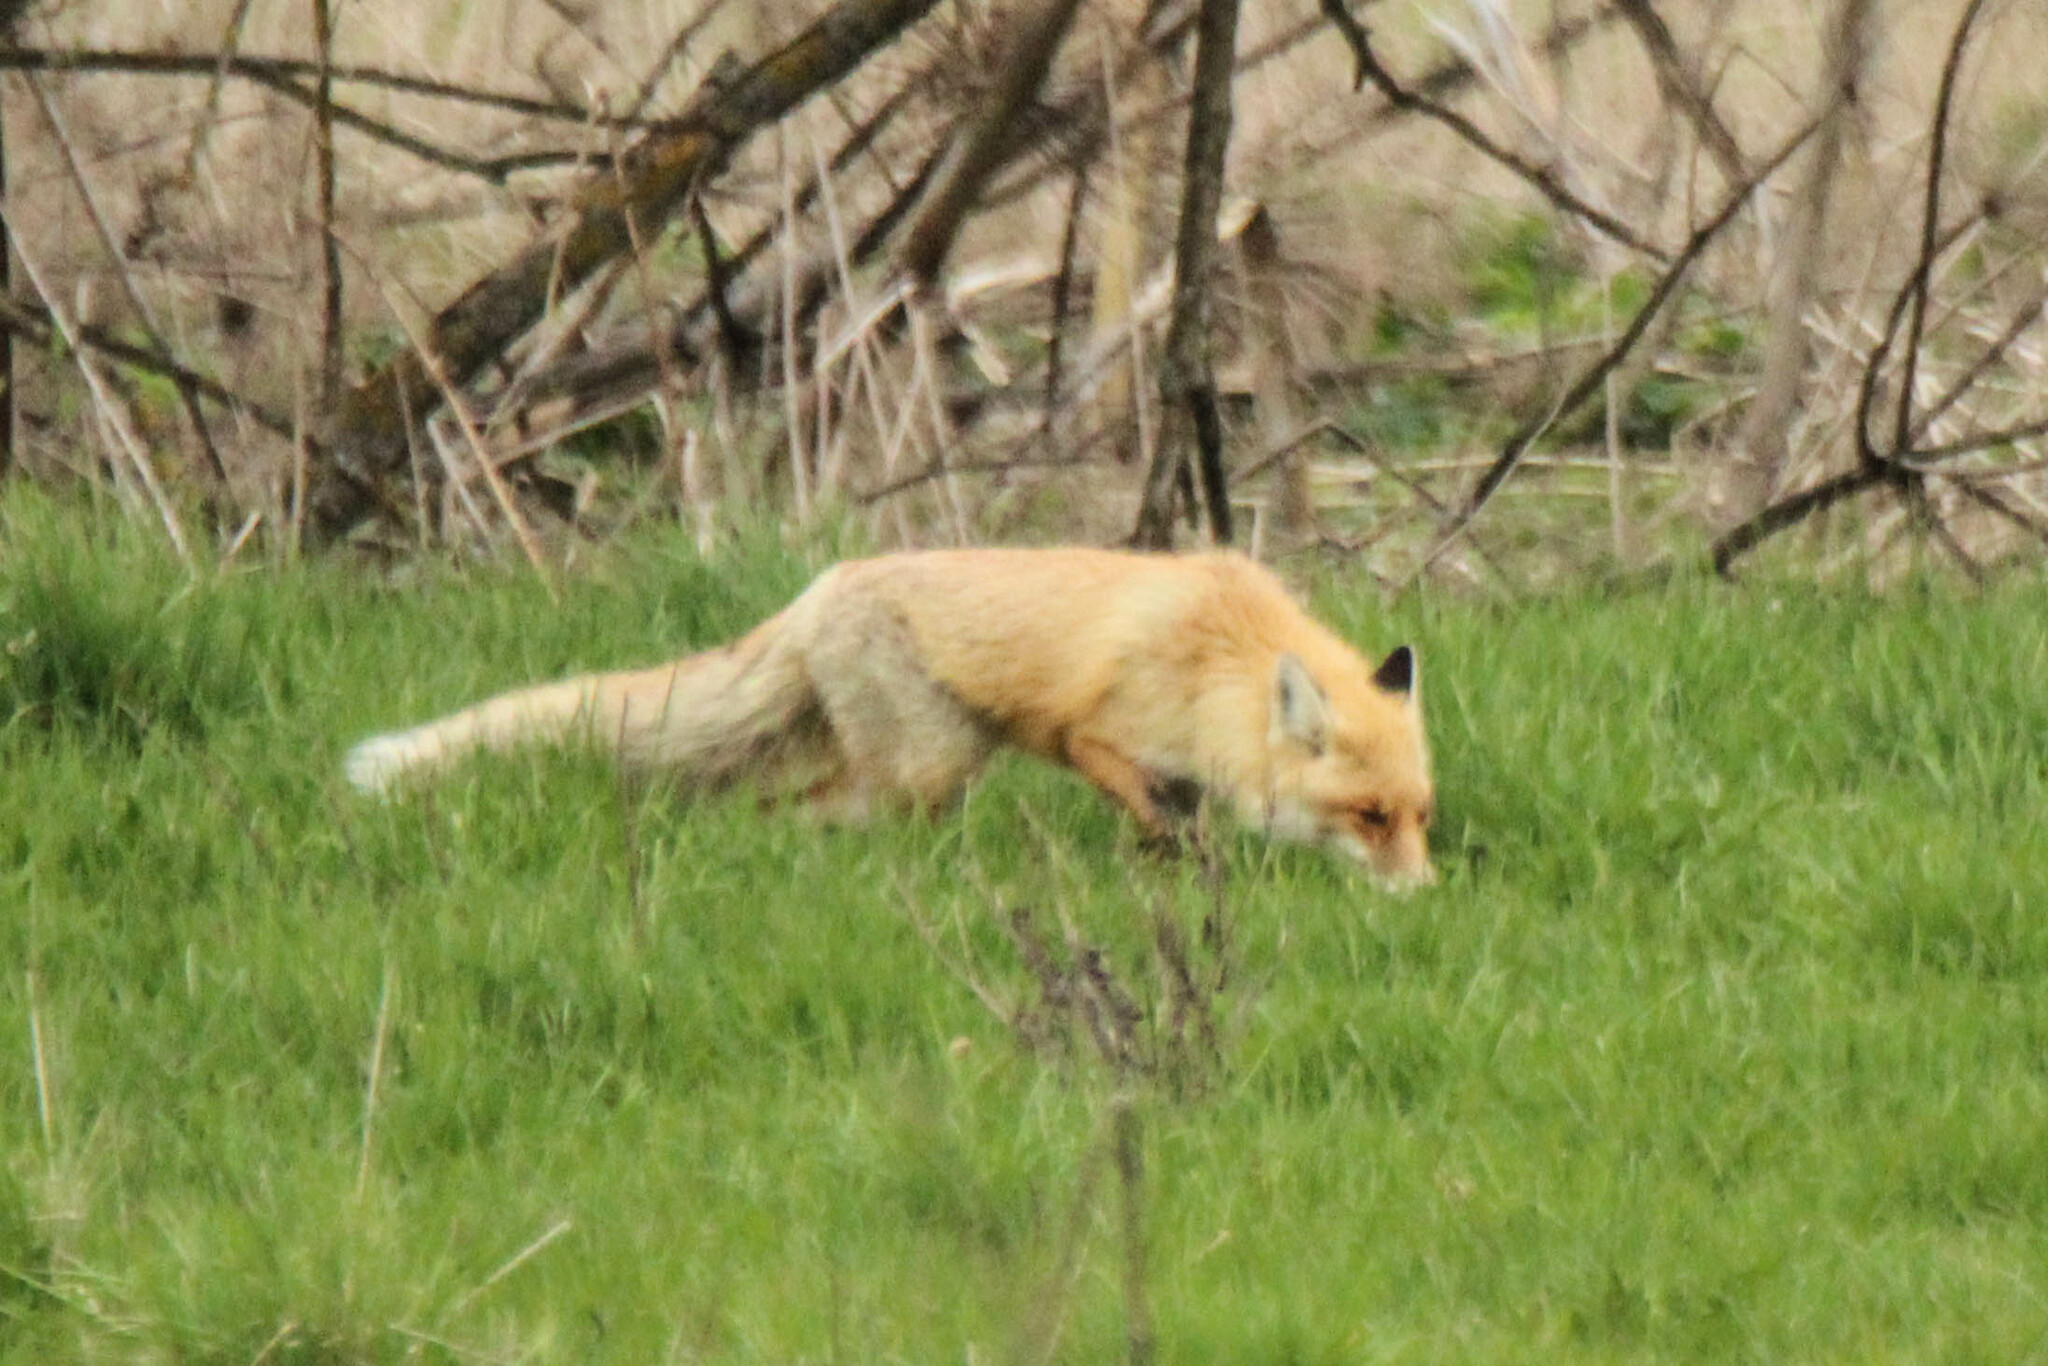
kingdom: Animalia
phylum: Chordata
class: Mammalia
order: Carnivora
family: Canidae
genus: Vulpes
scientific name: Vulpes vulpes
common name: Red fox
